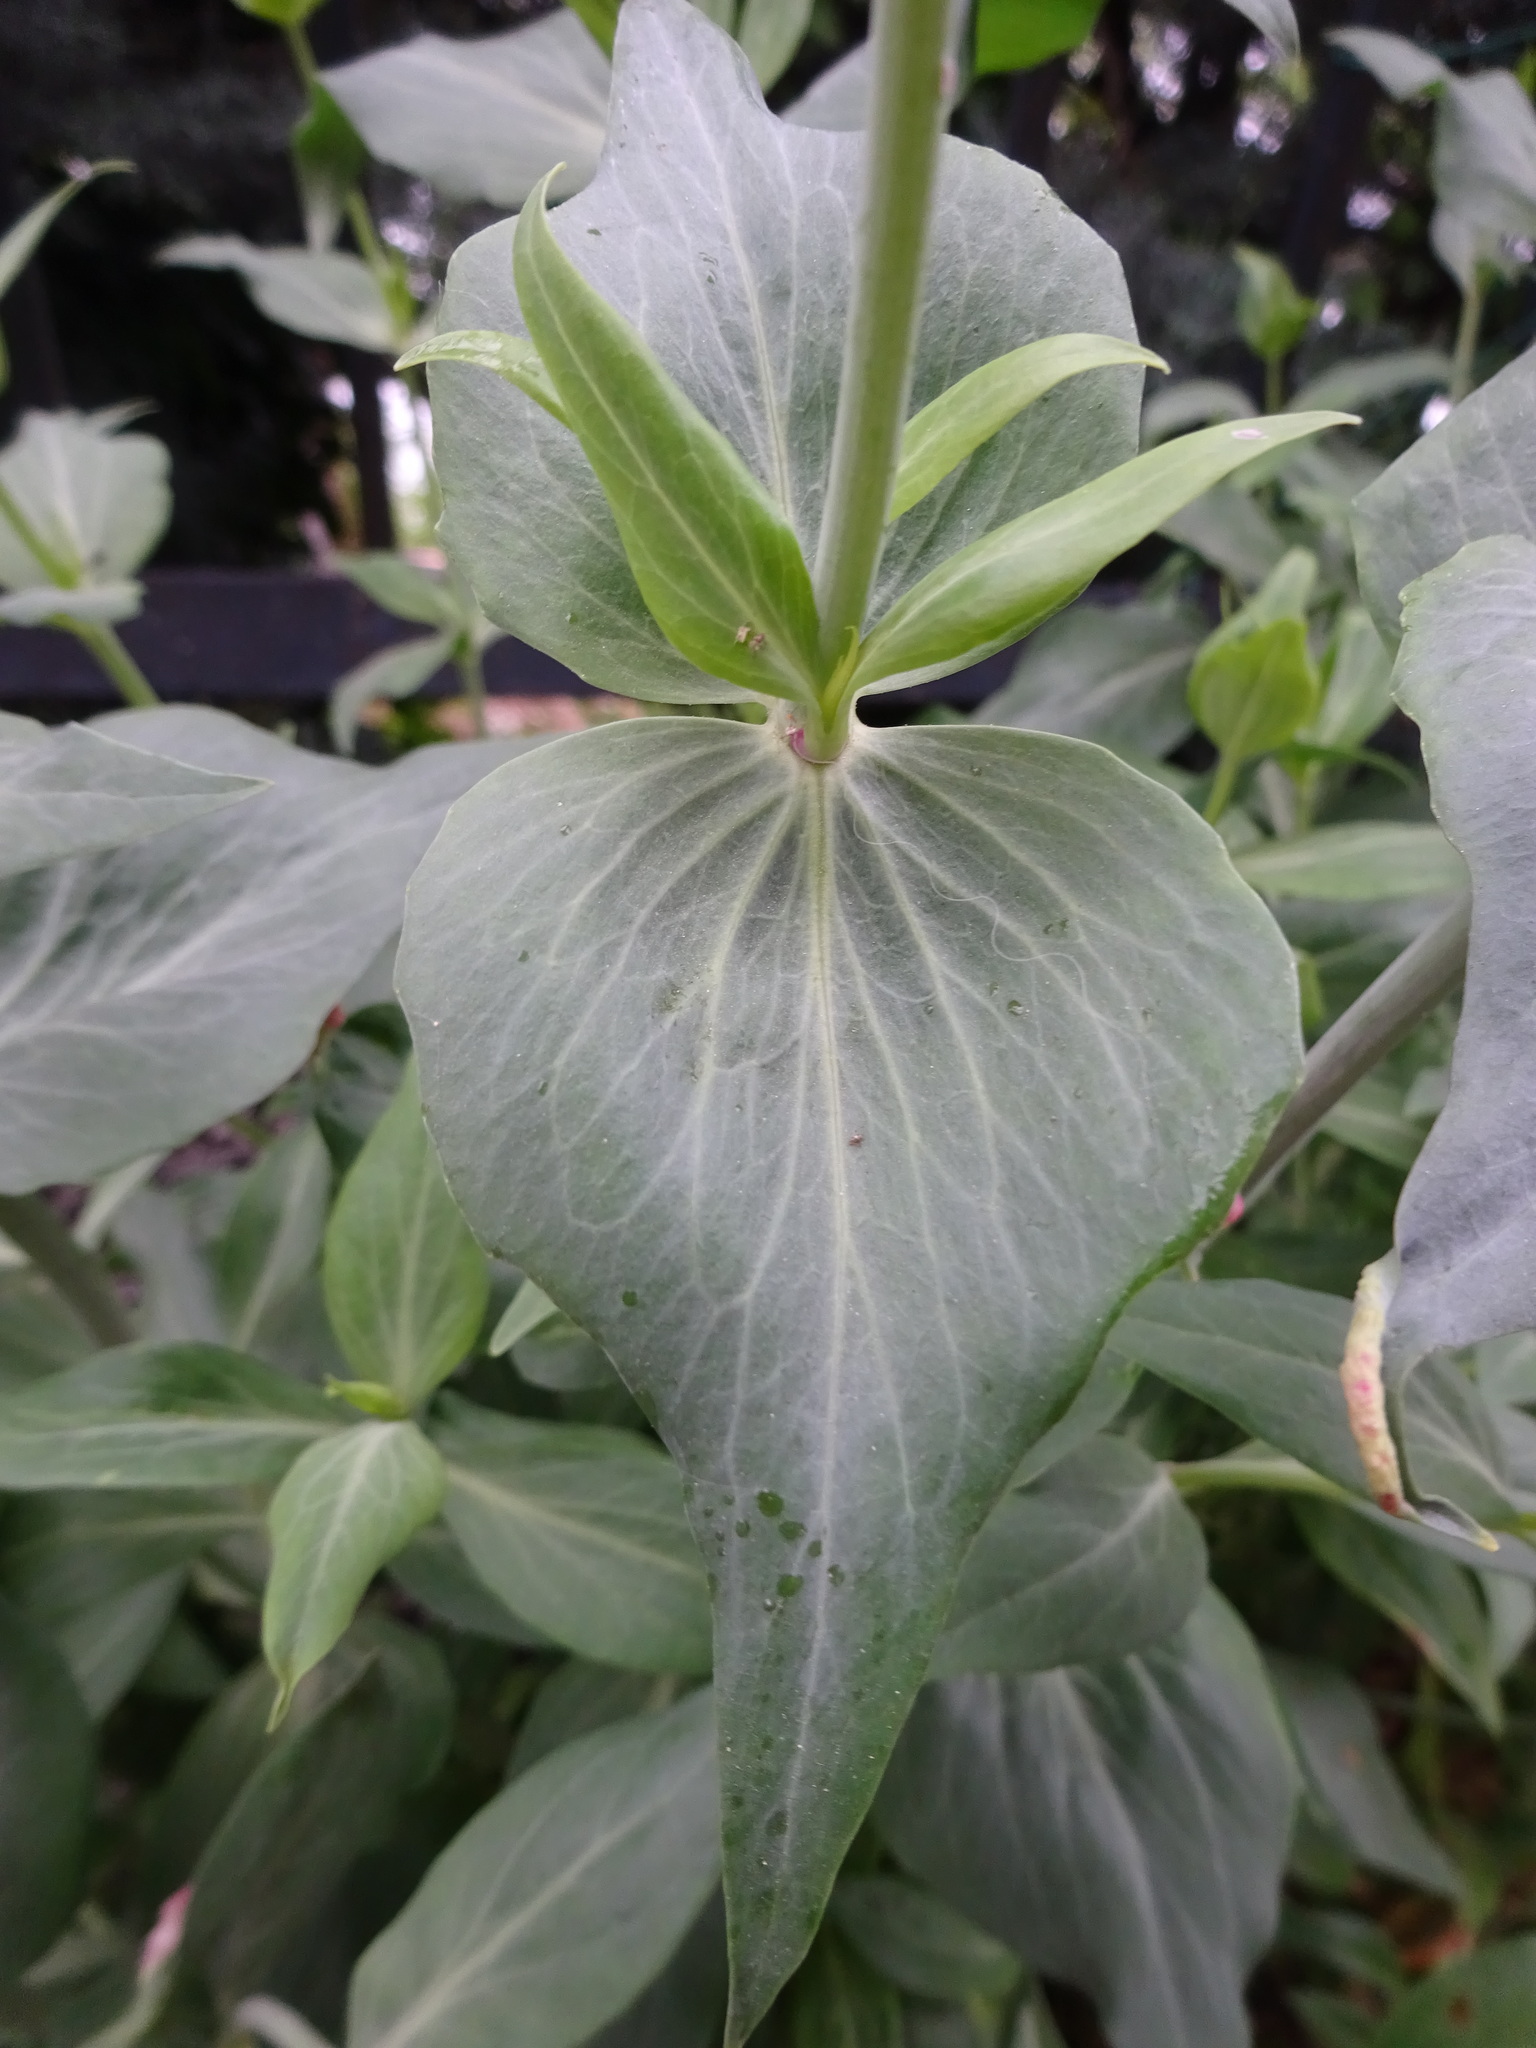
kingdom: Plantae
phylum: Tracheophyta
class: Magnoliopsida
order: Dipsacales
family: Caprifoliaceae
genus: Centranthus
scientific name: Centranthus ruber
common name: Red valerian
